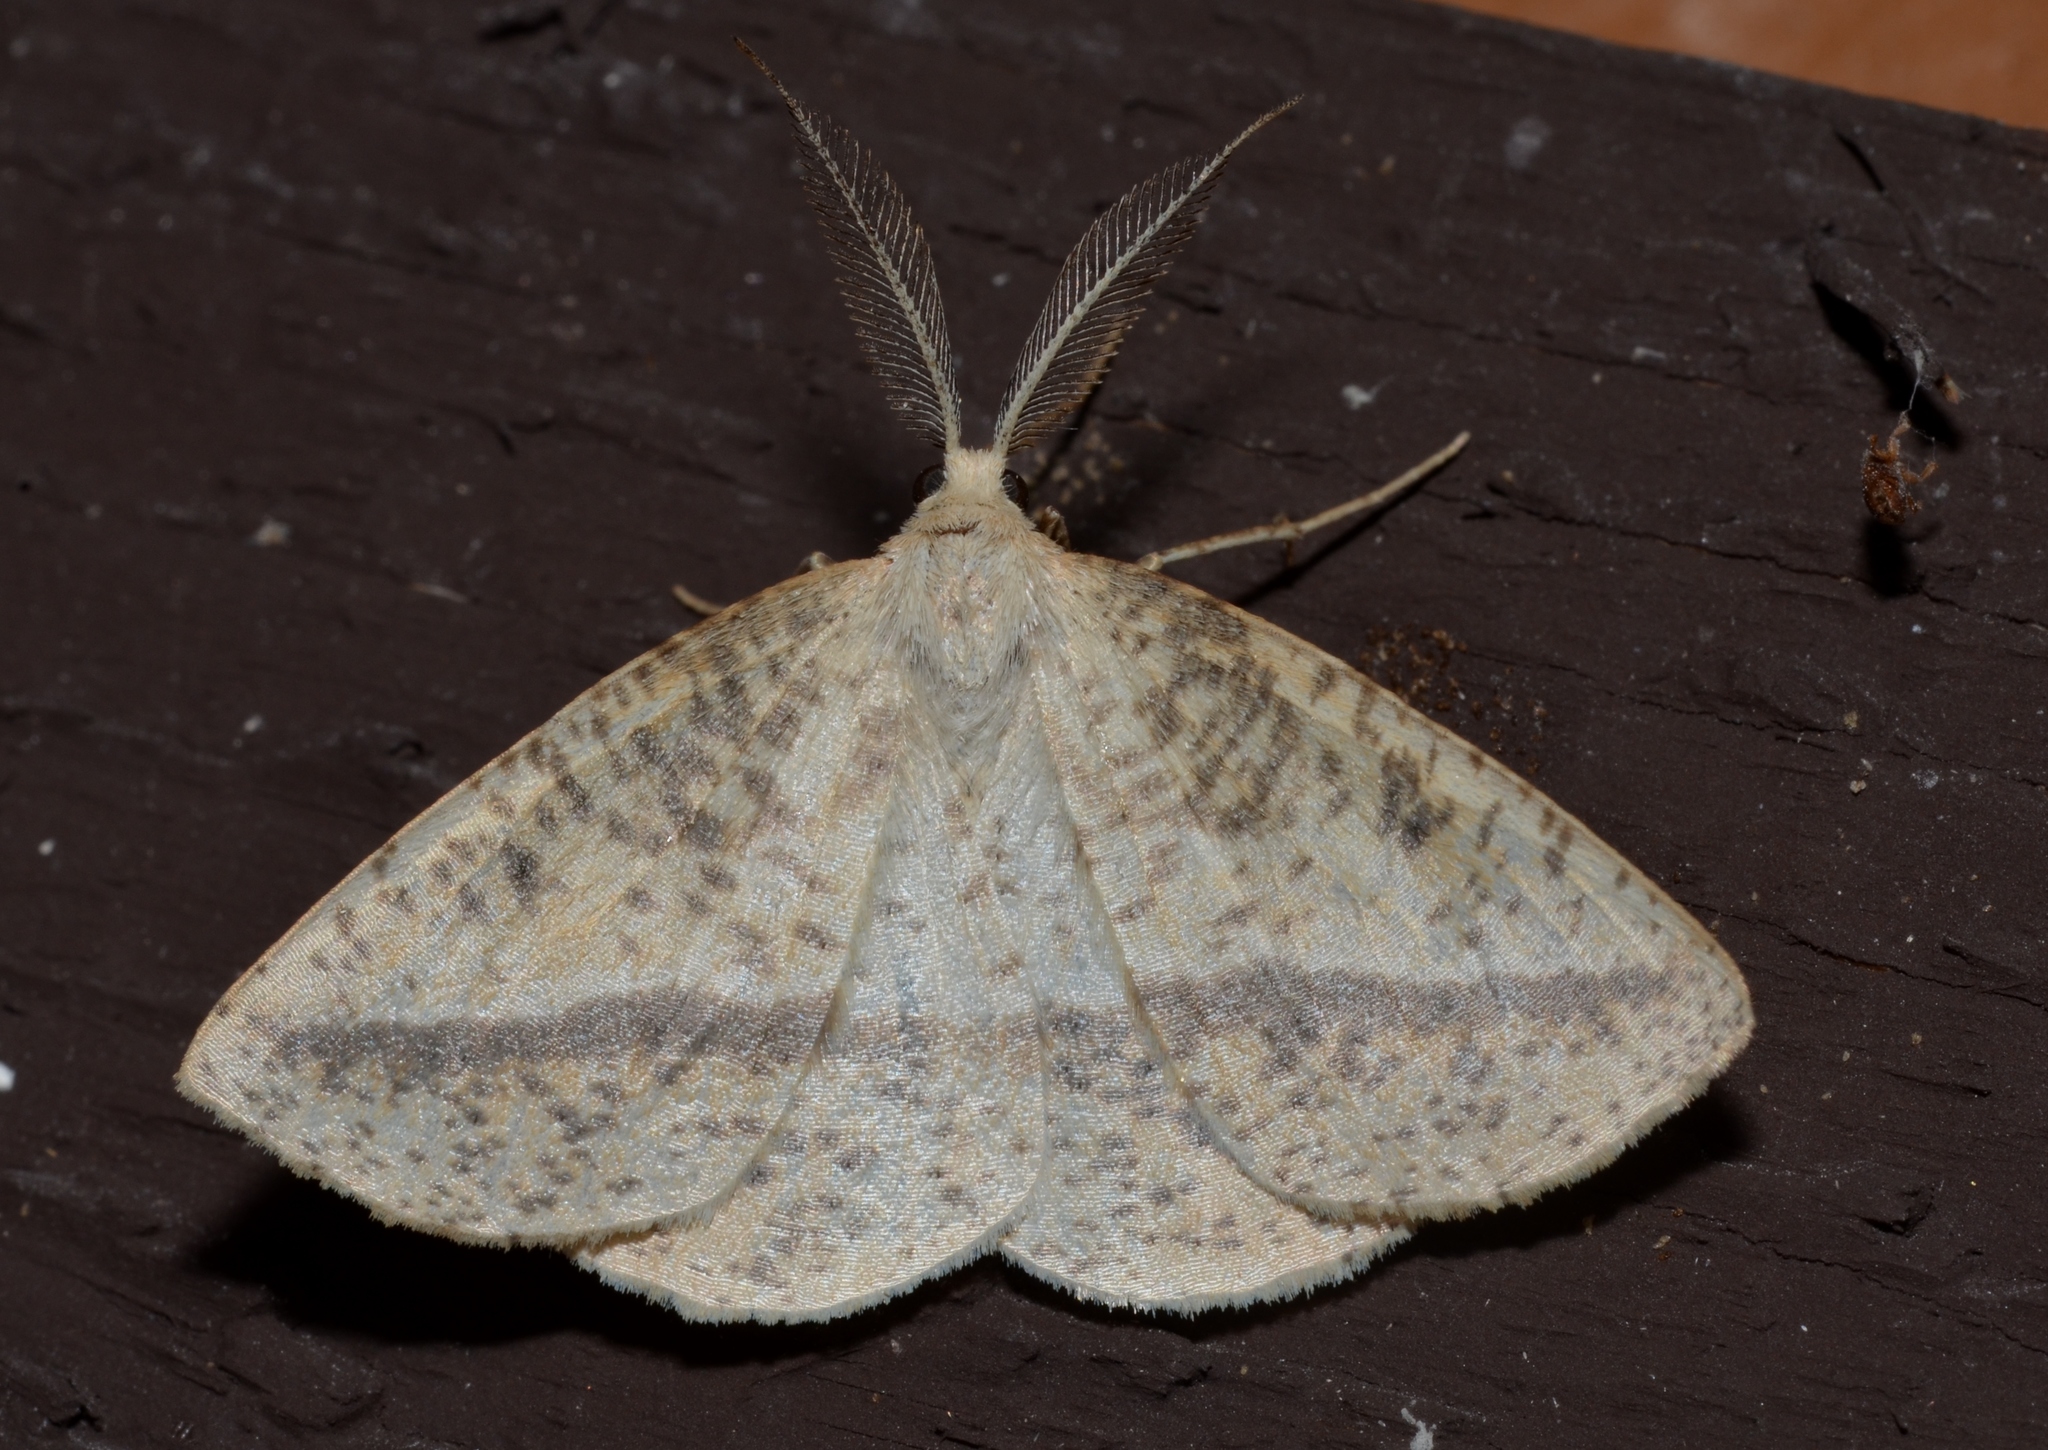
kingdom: Animalia
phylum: Arthropoda
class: Insecta
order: Lepidoptera
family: Geometridae
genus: Lychnosea
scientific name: Lychnosea intermicata
